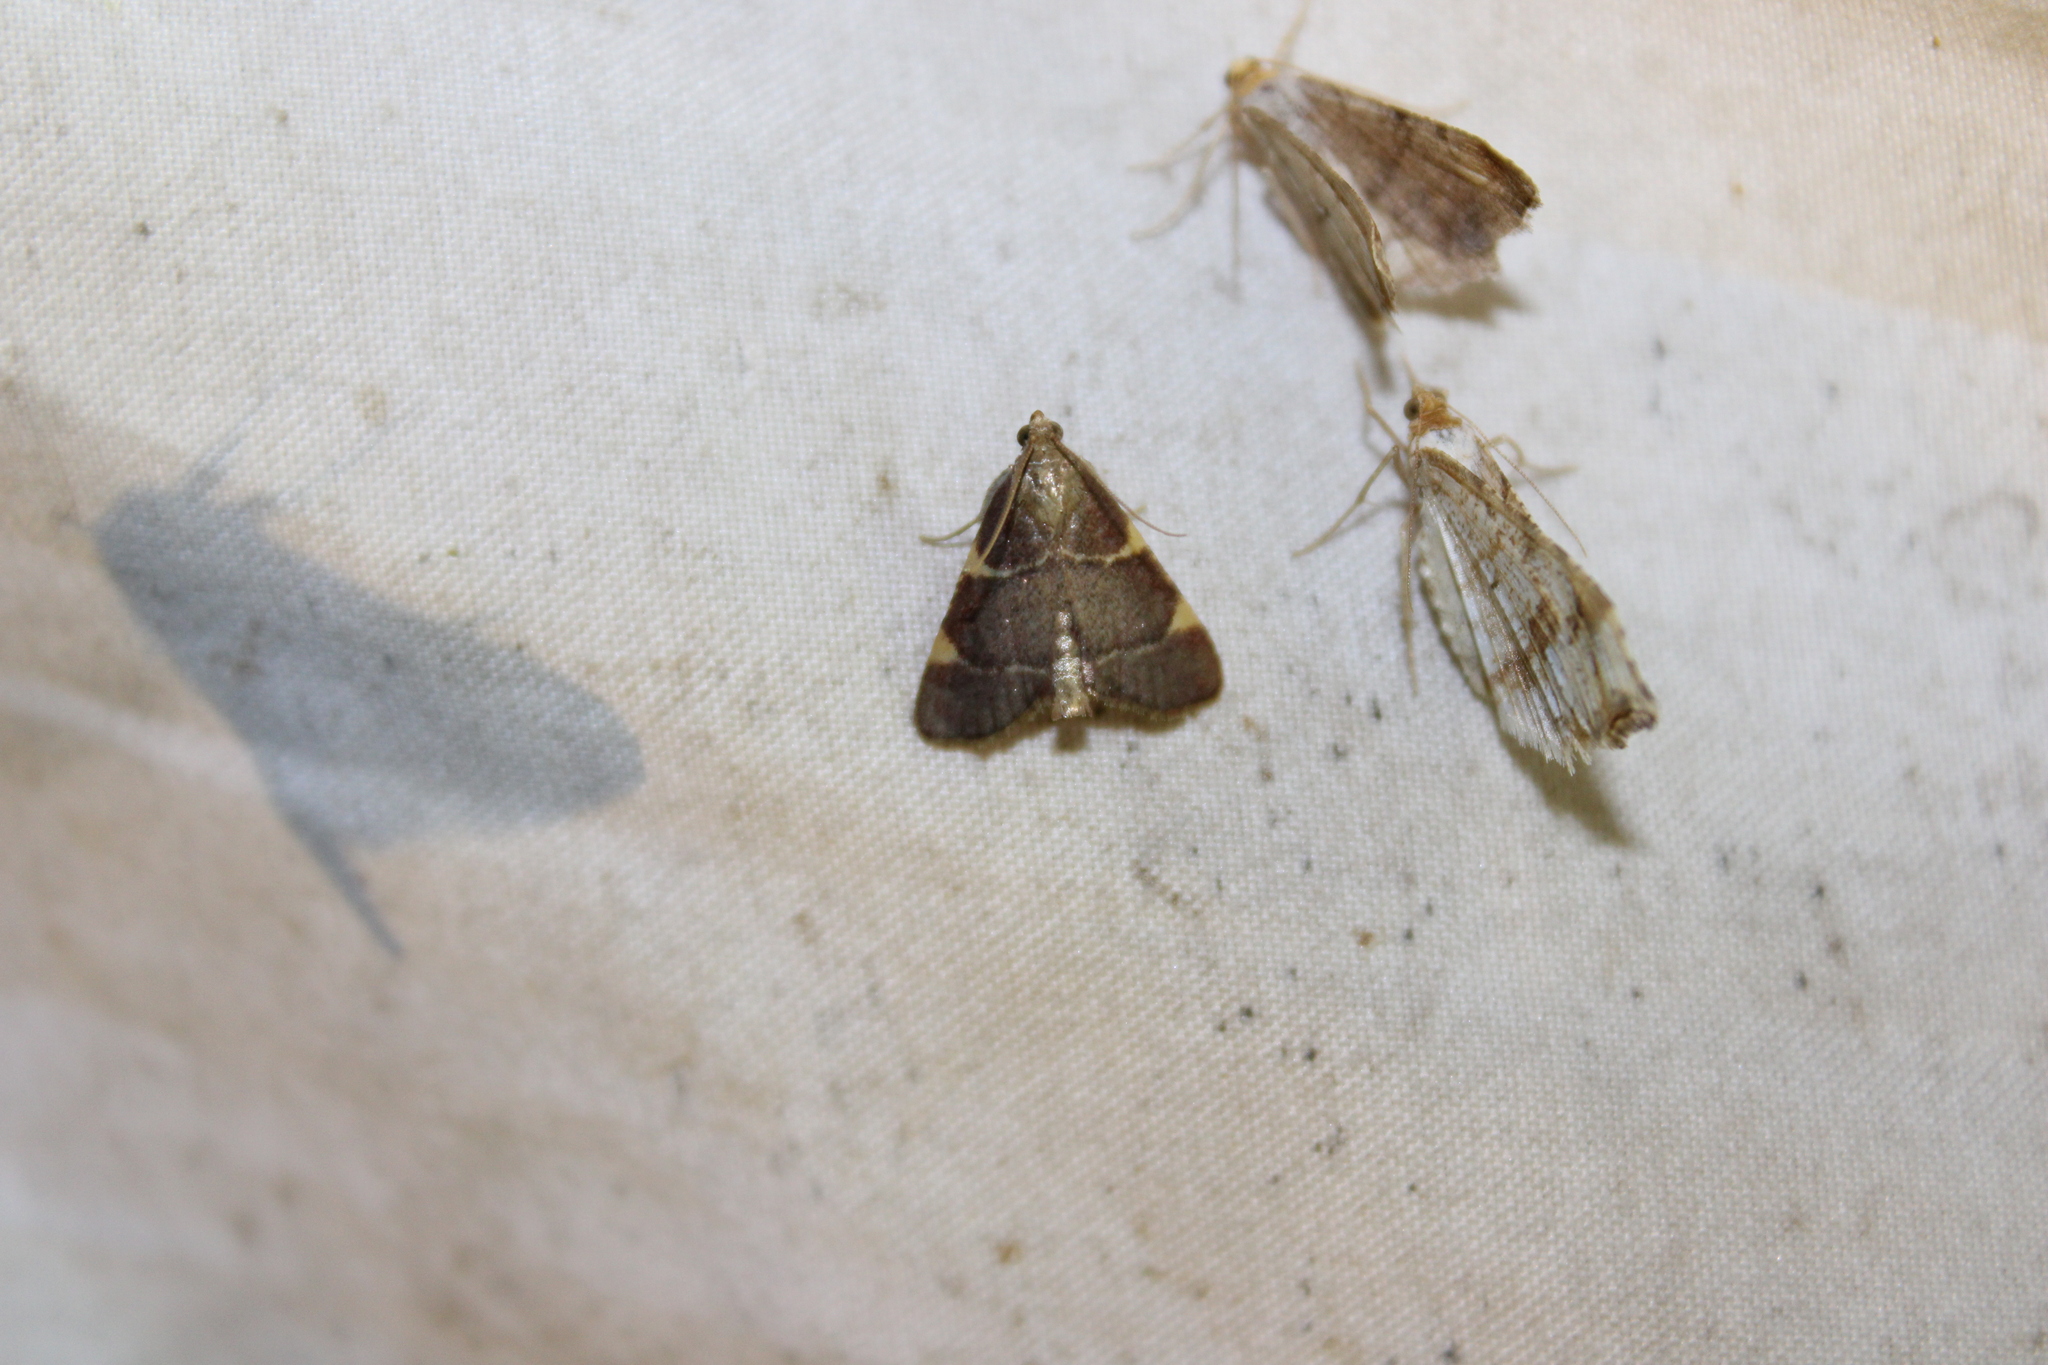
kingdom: Animalia
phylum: Arthropoda
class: Insecta
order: Lepidoptera
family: Pyralidae
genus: Hypsopygia
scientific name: Hypsopygia olinalis
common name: Yellow-fringed dolichomia moth
